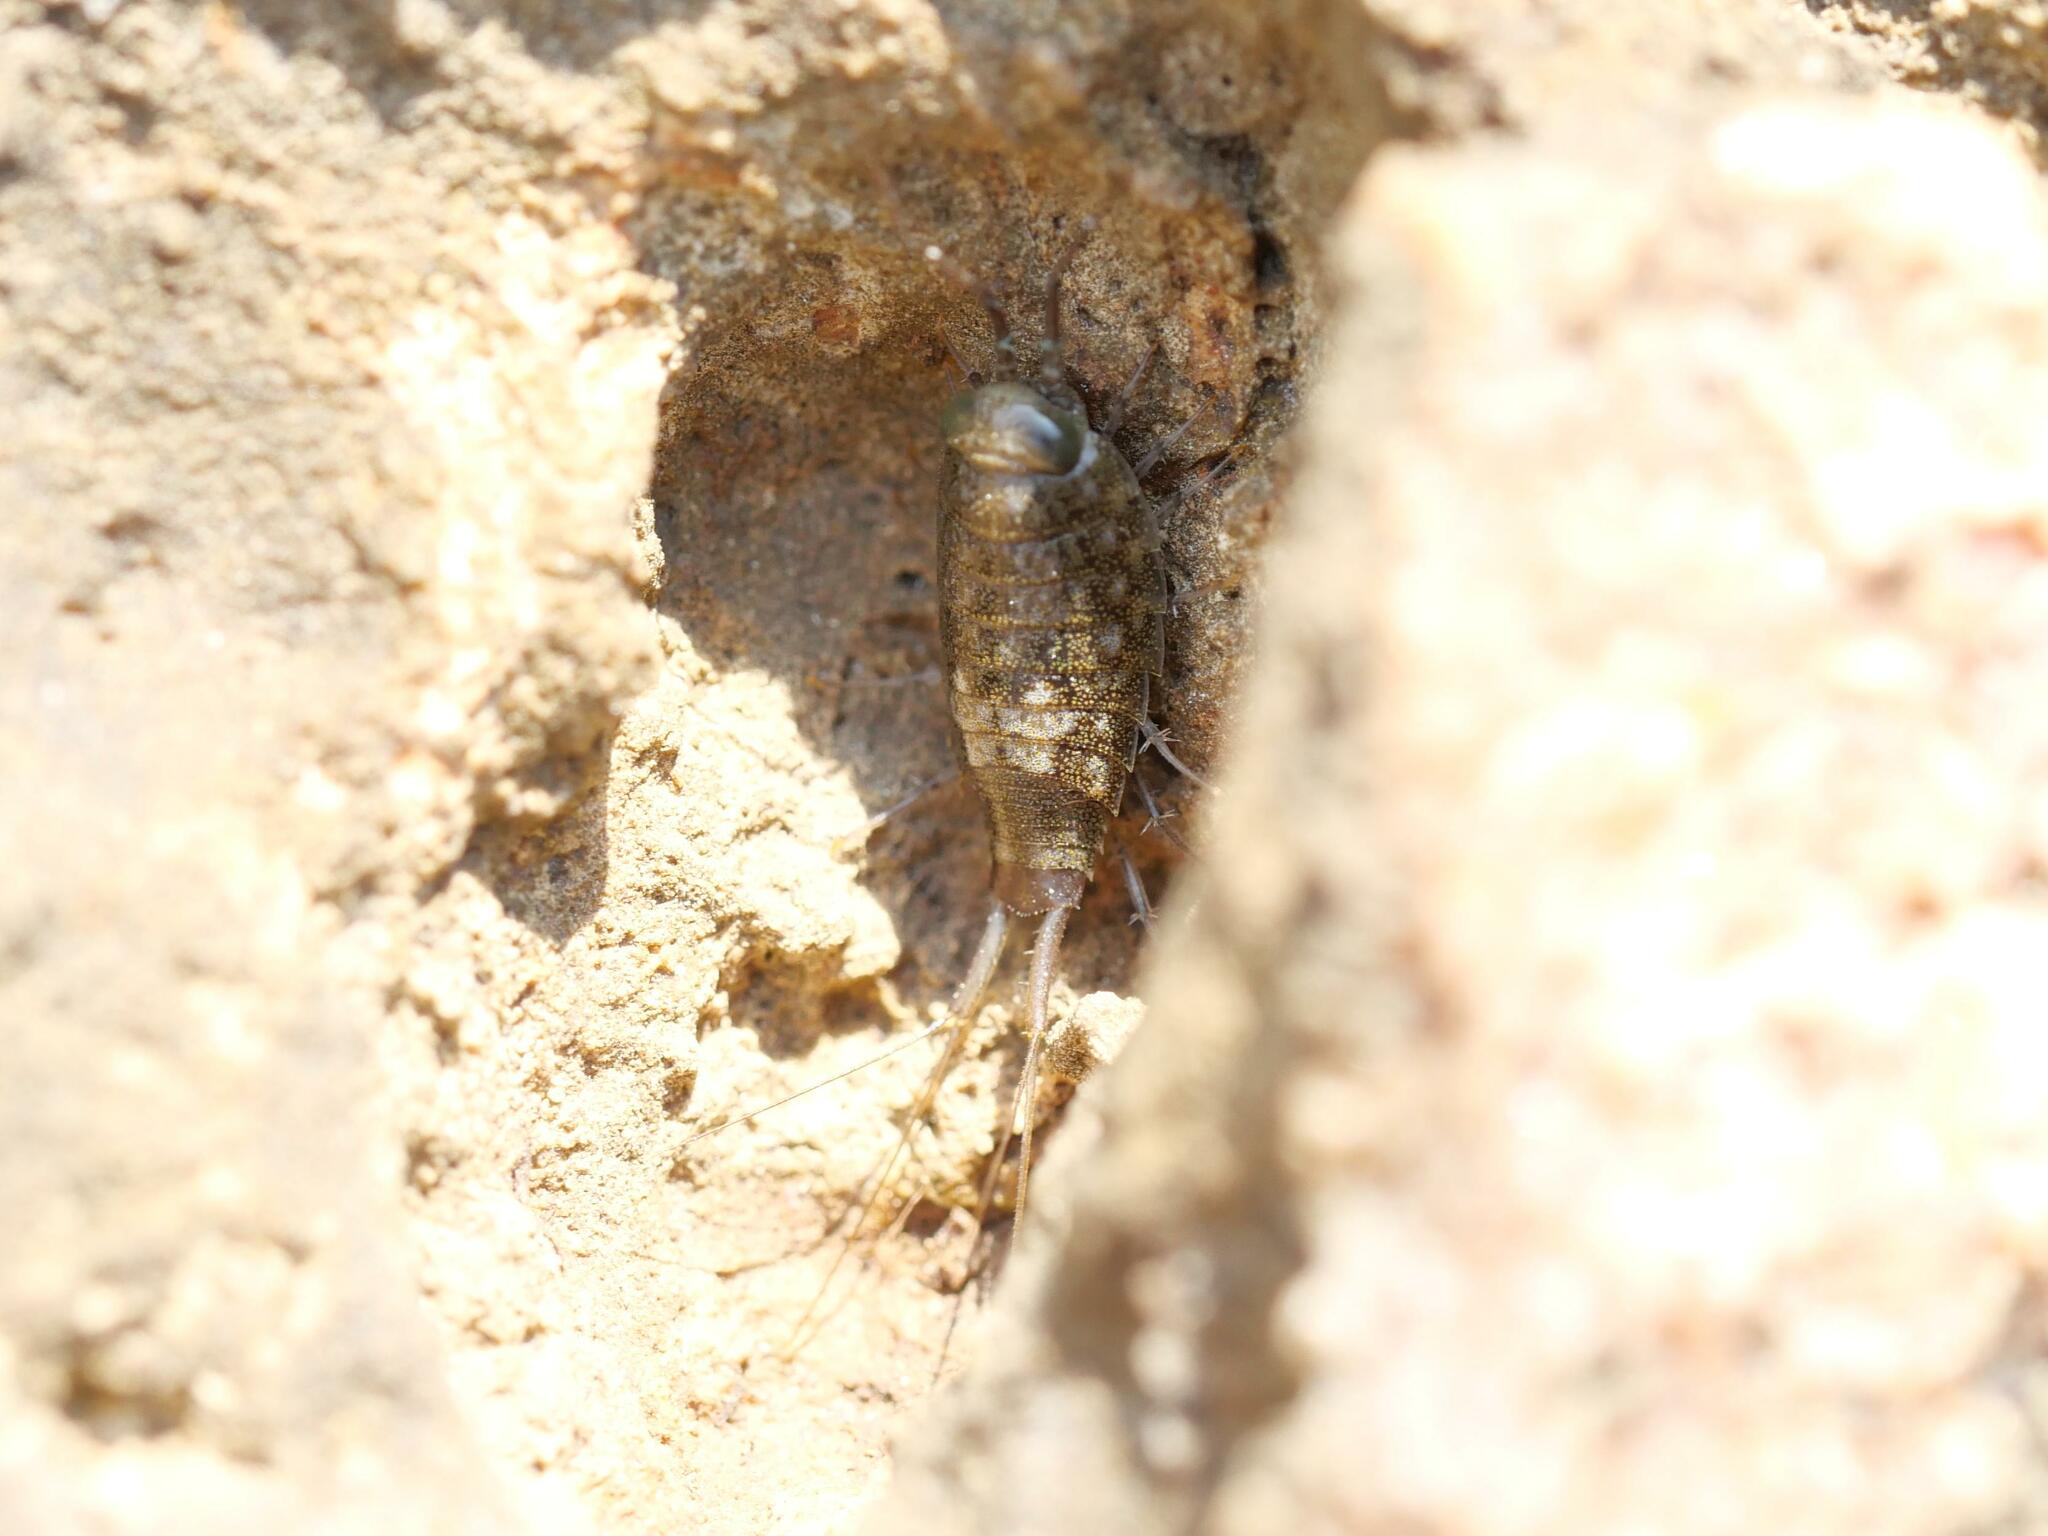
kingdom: Animalia
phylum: Arthropoda
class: Malacostraca
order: Isopoda
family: Ligiidae
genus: Ligia
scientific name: Ligia italica
